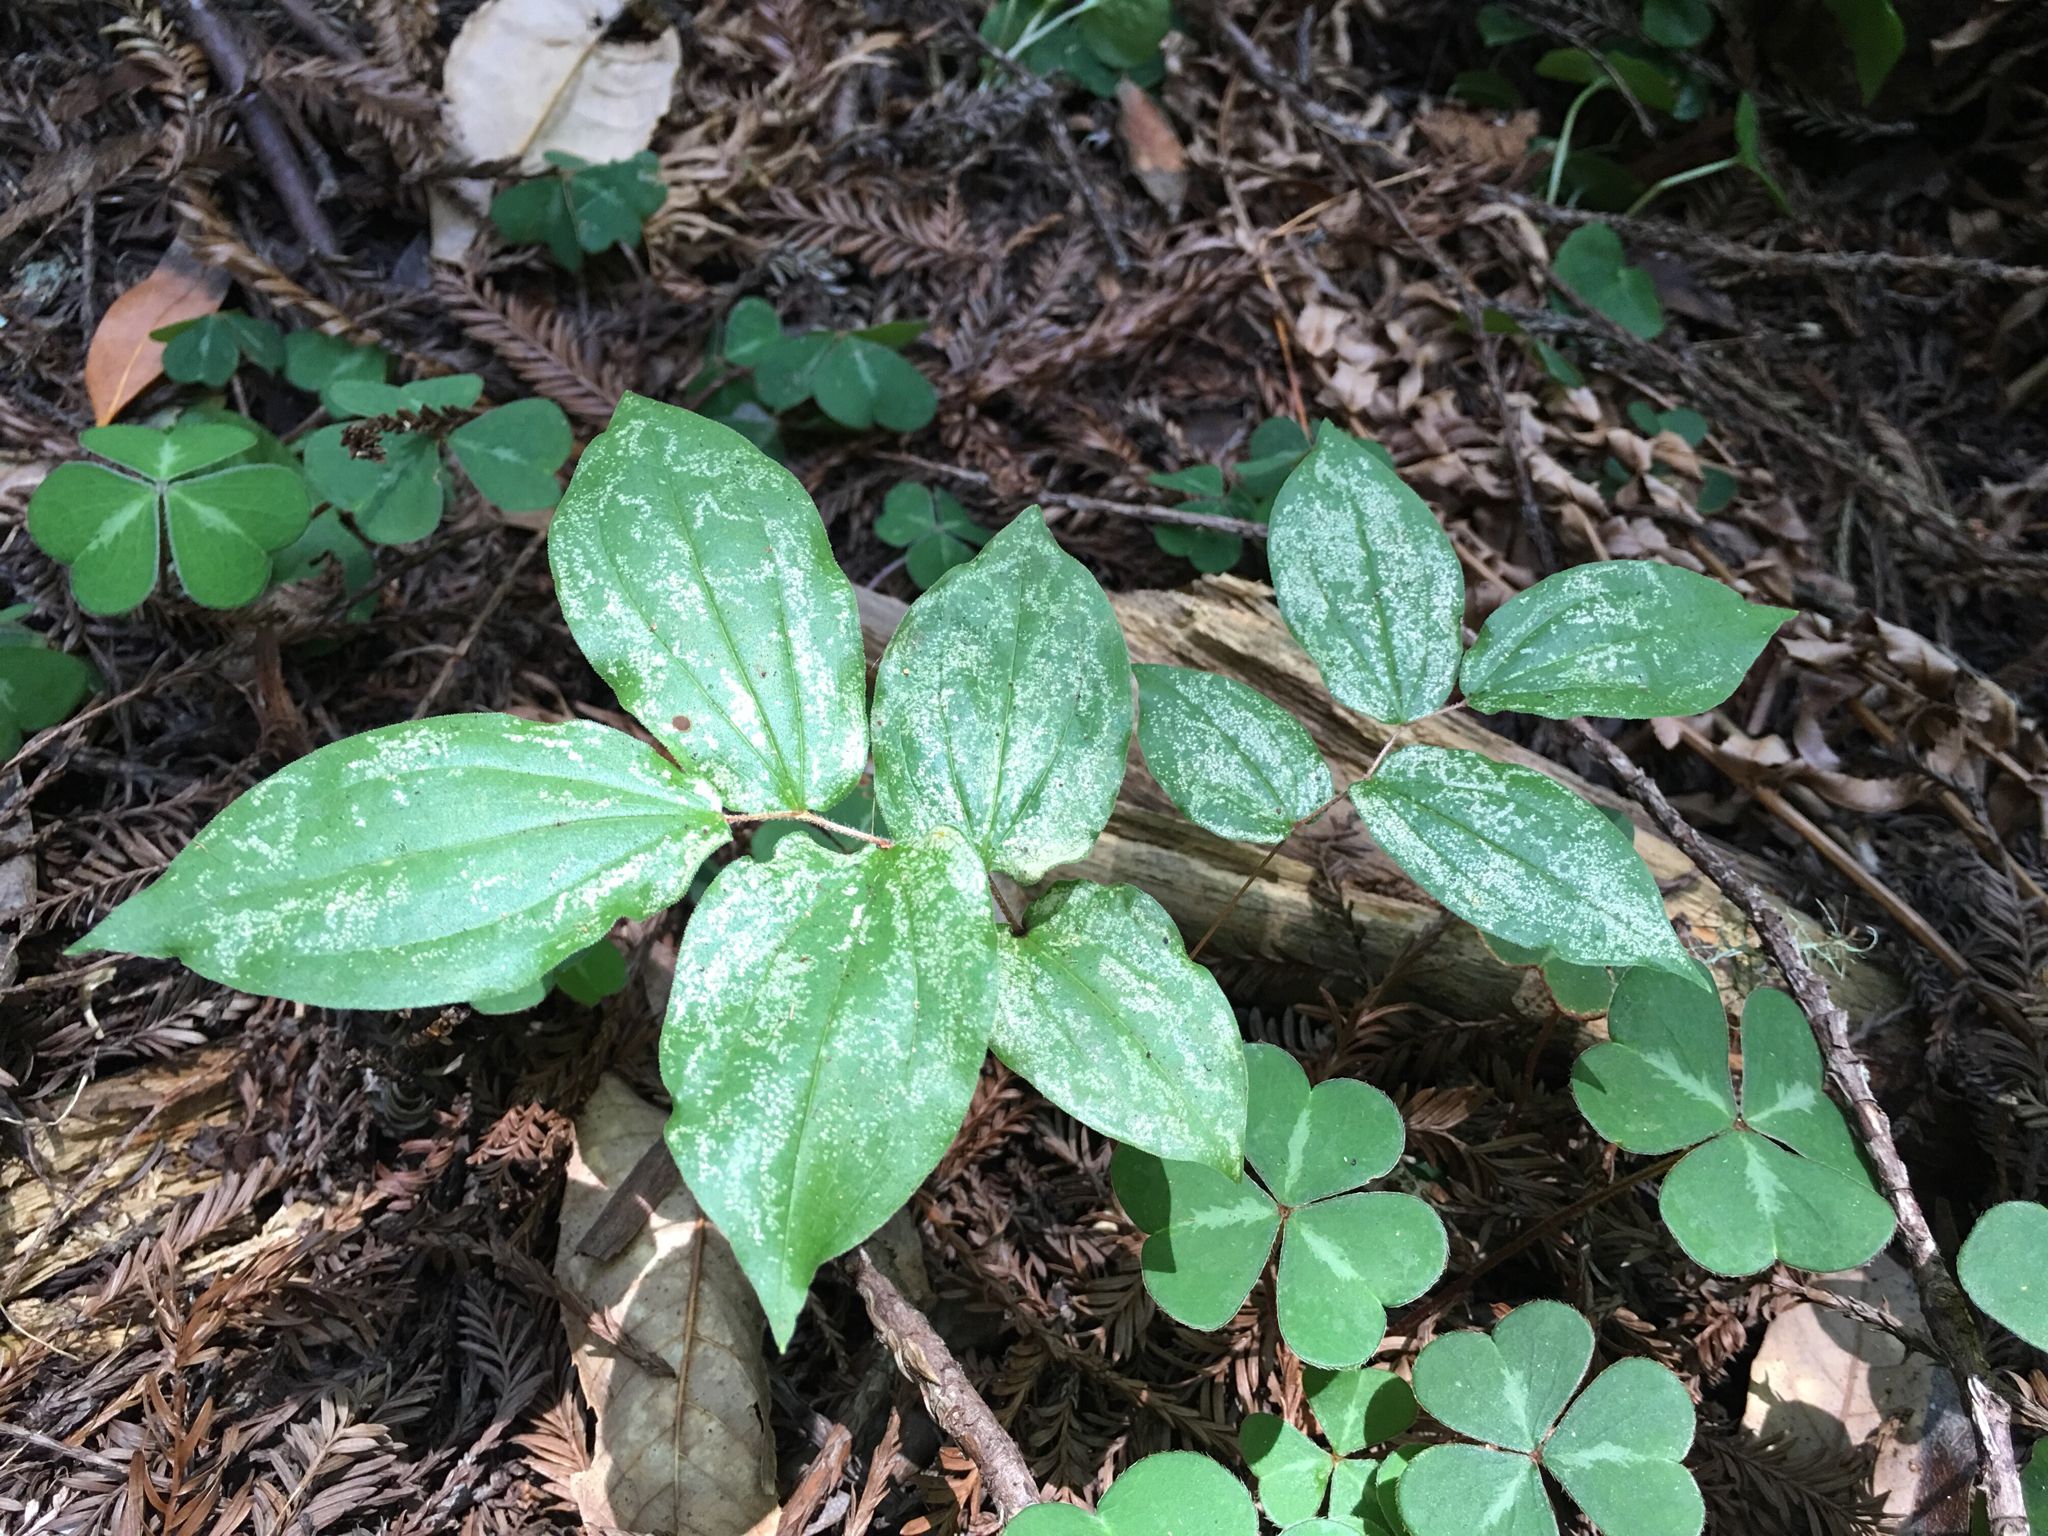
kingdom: Plantae
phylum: Tracheophyta
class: Liliopsida
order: Liliales
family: Liliaceae
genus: Prosartes
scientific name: Prosartes hookeri
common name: Fairy-bells
